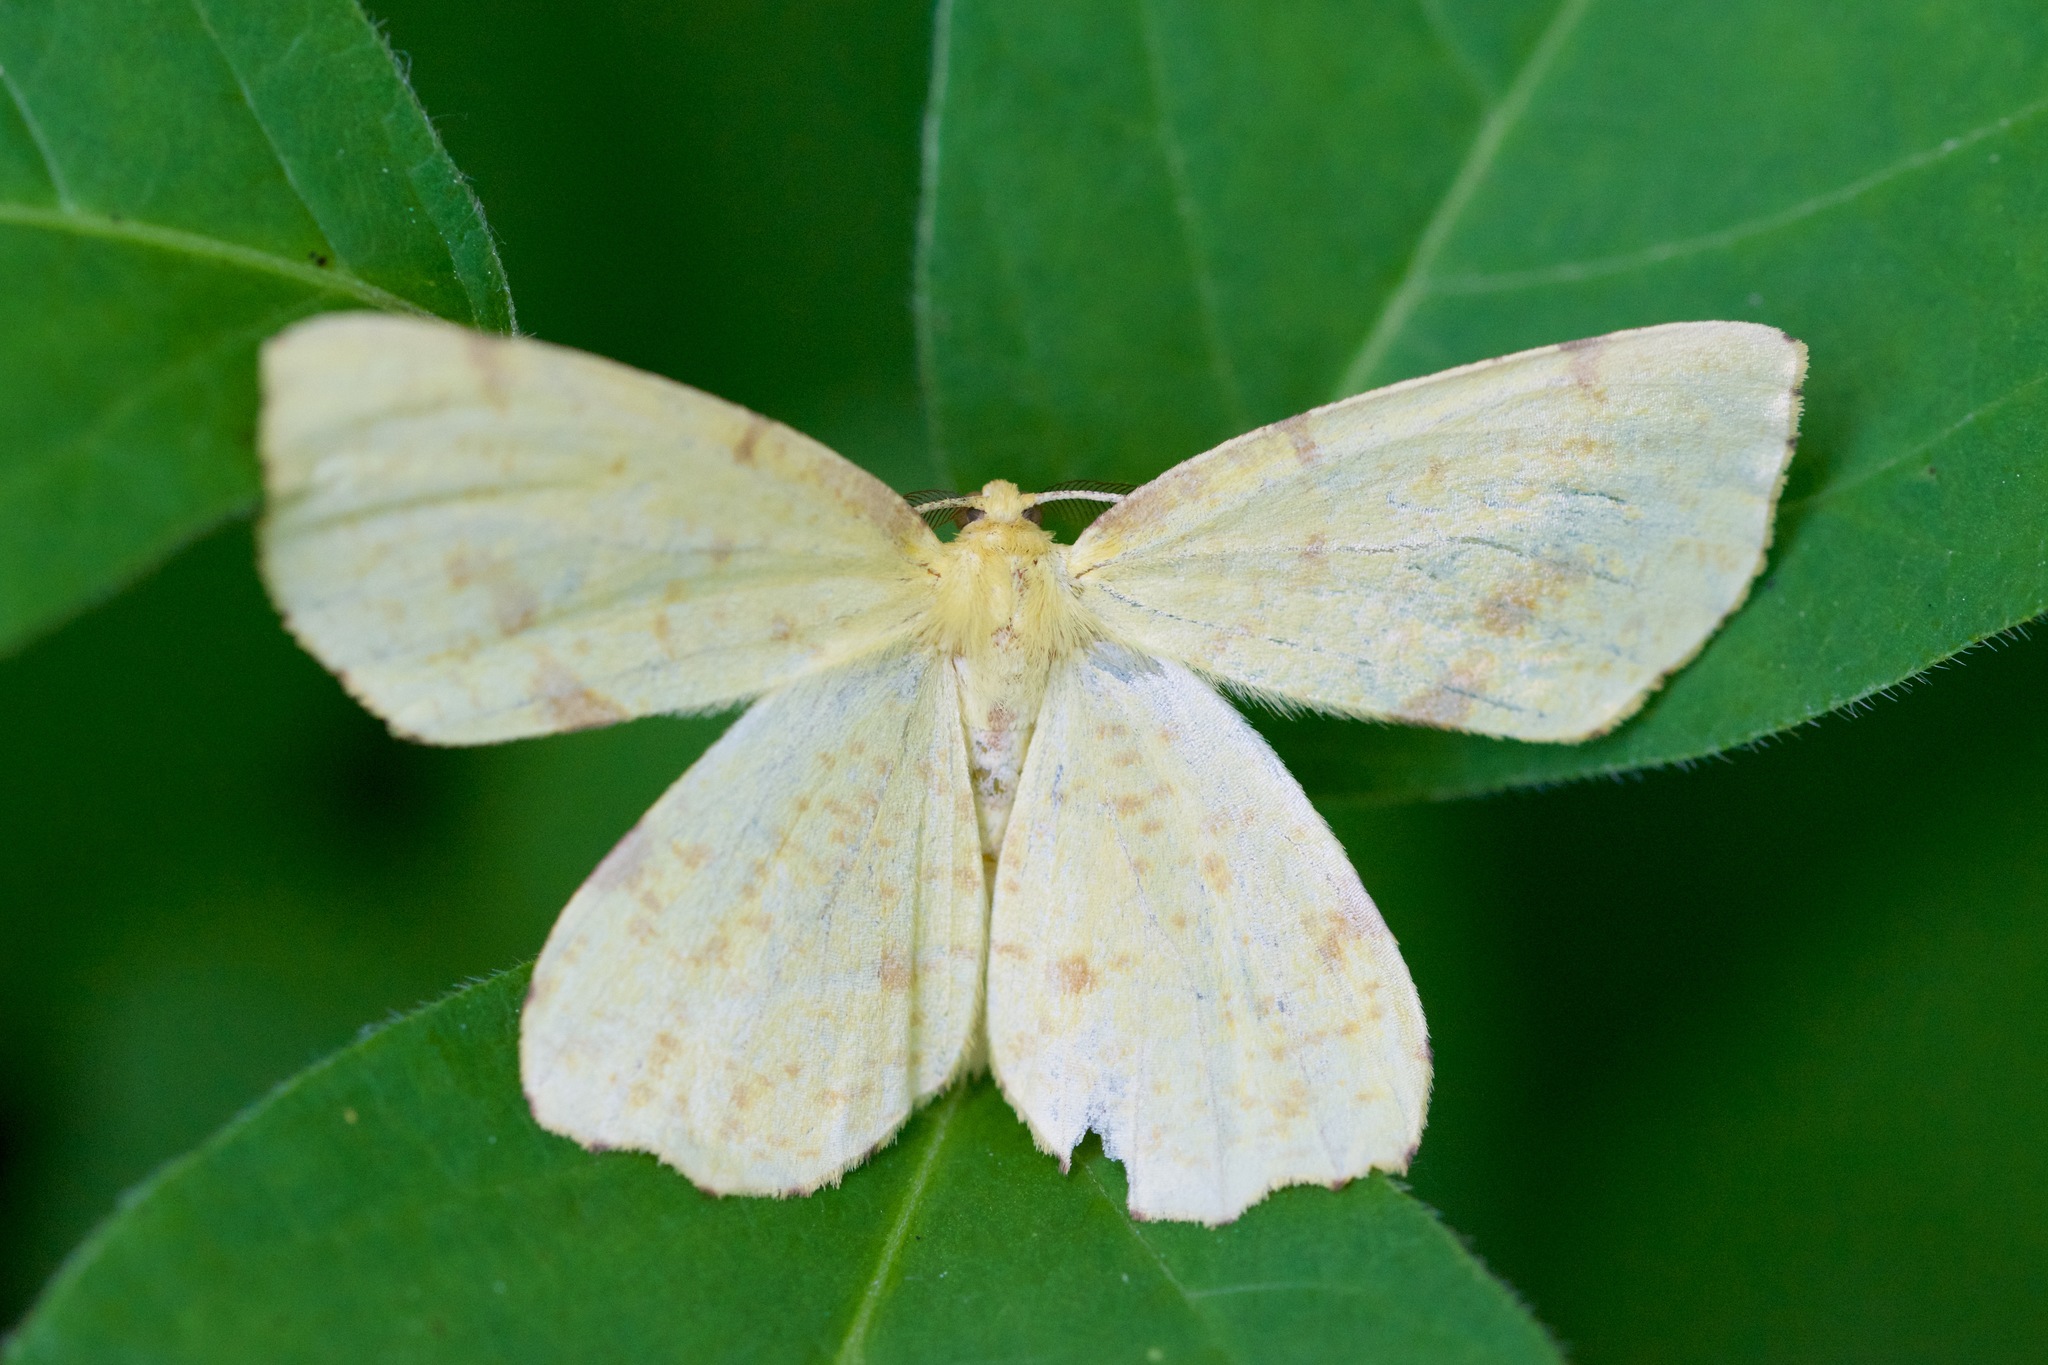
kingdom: Animalia
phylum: Arthropoda
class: Insecta
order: Lepidoptera
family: Geometridae
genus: Xanthotype
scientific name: Xanthotype
